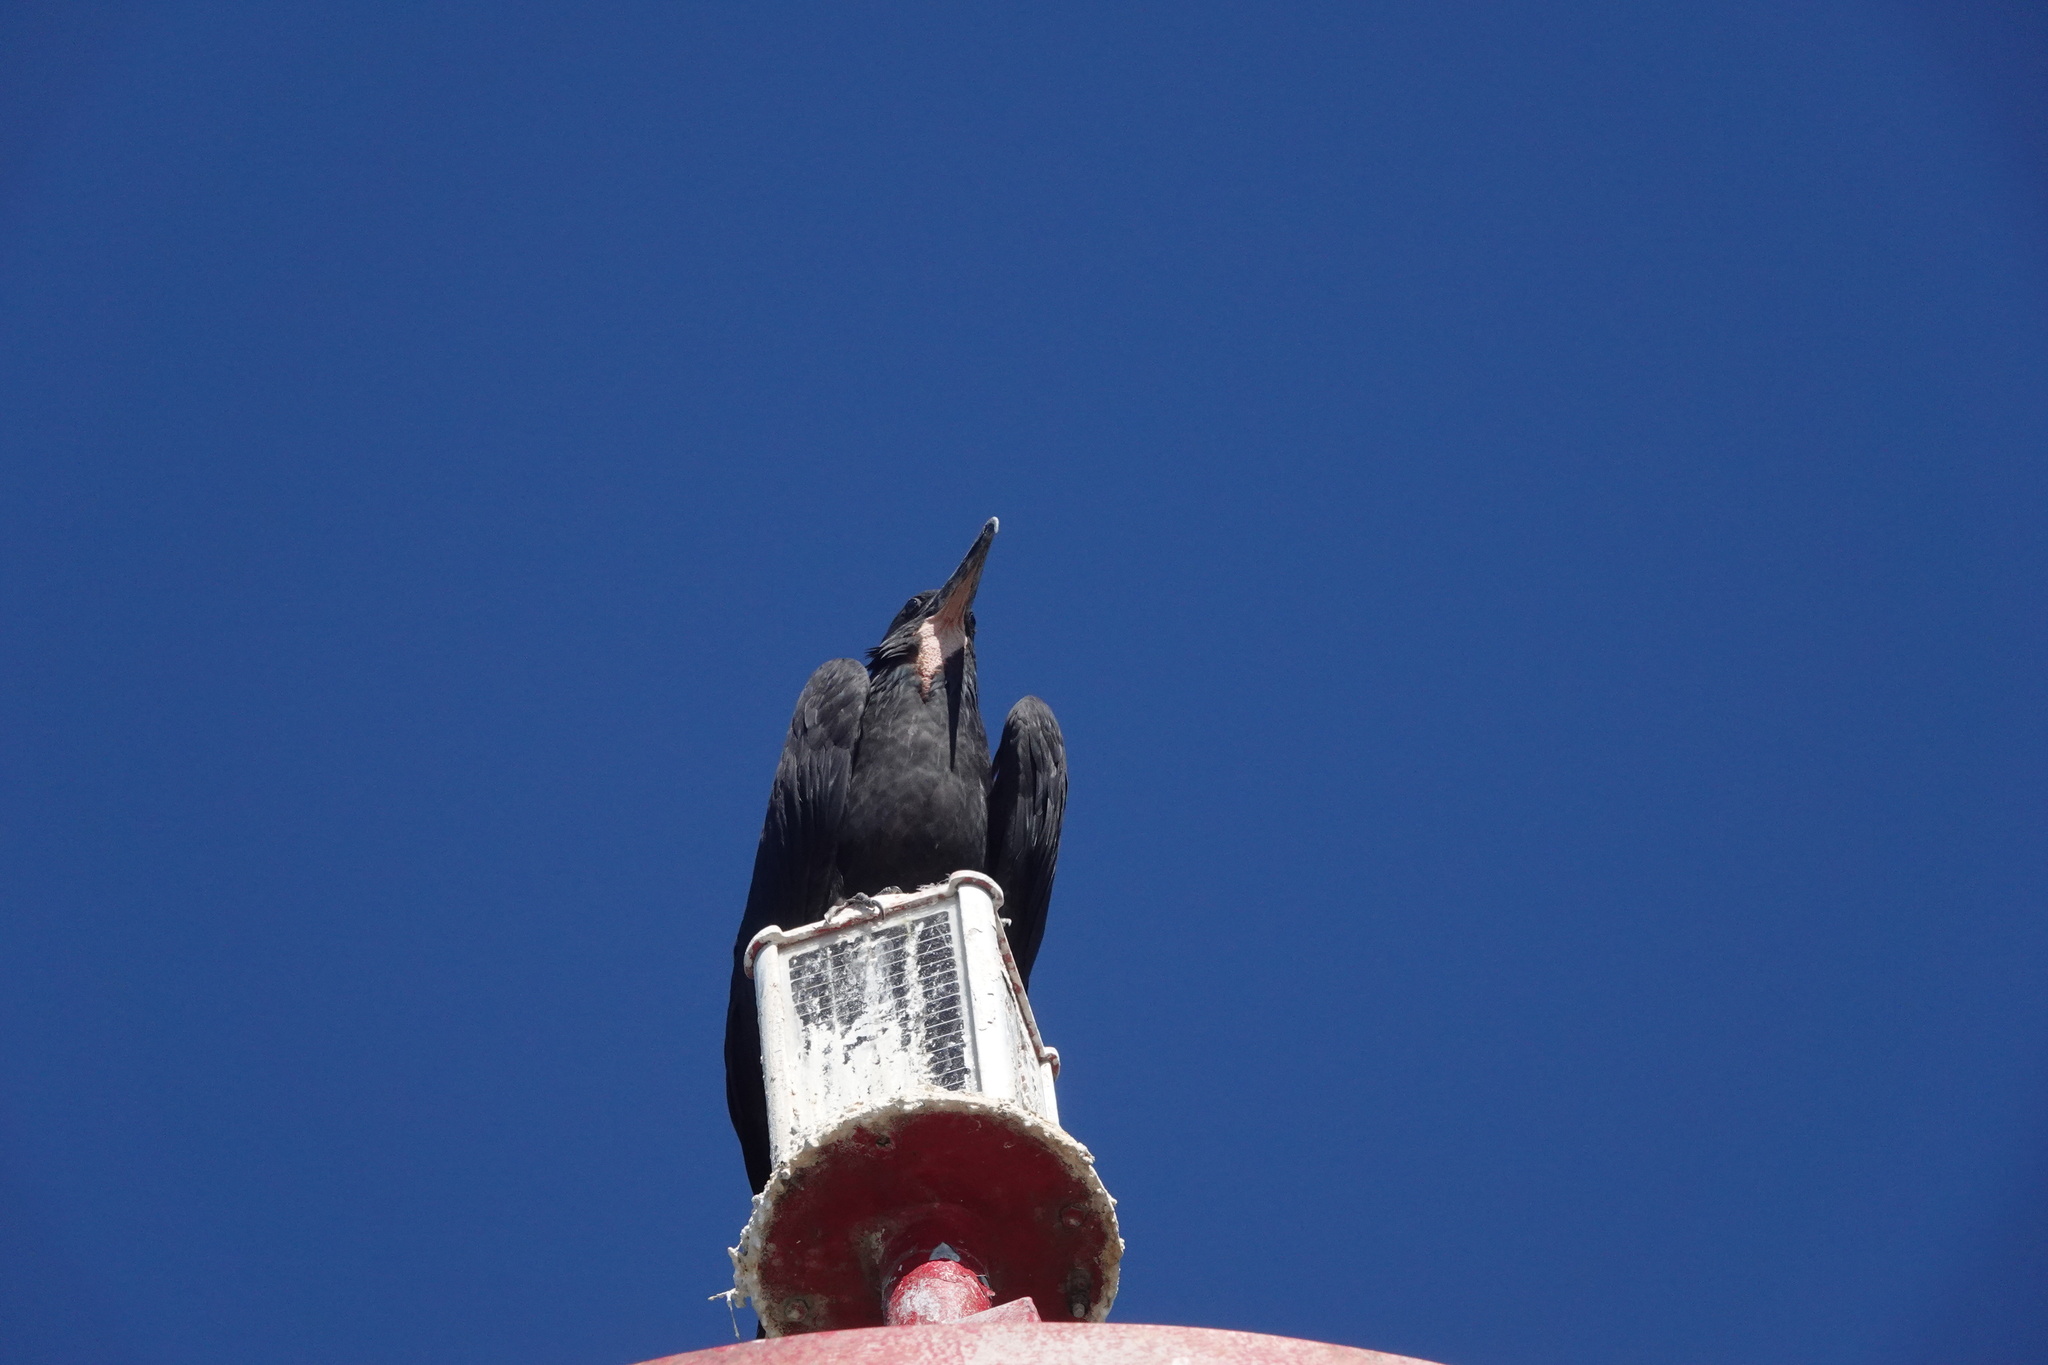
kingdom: Animalia
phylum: Chordata
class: Aves
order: Suliformes
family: Fregatidae
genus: Fregata
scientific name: Fregata magnificens
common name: Magnificent frigatebird
